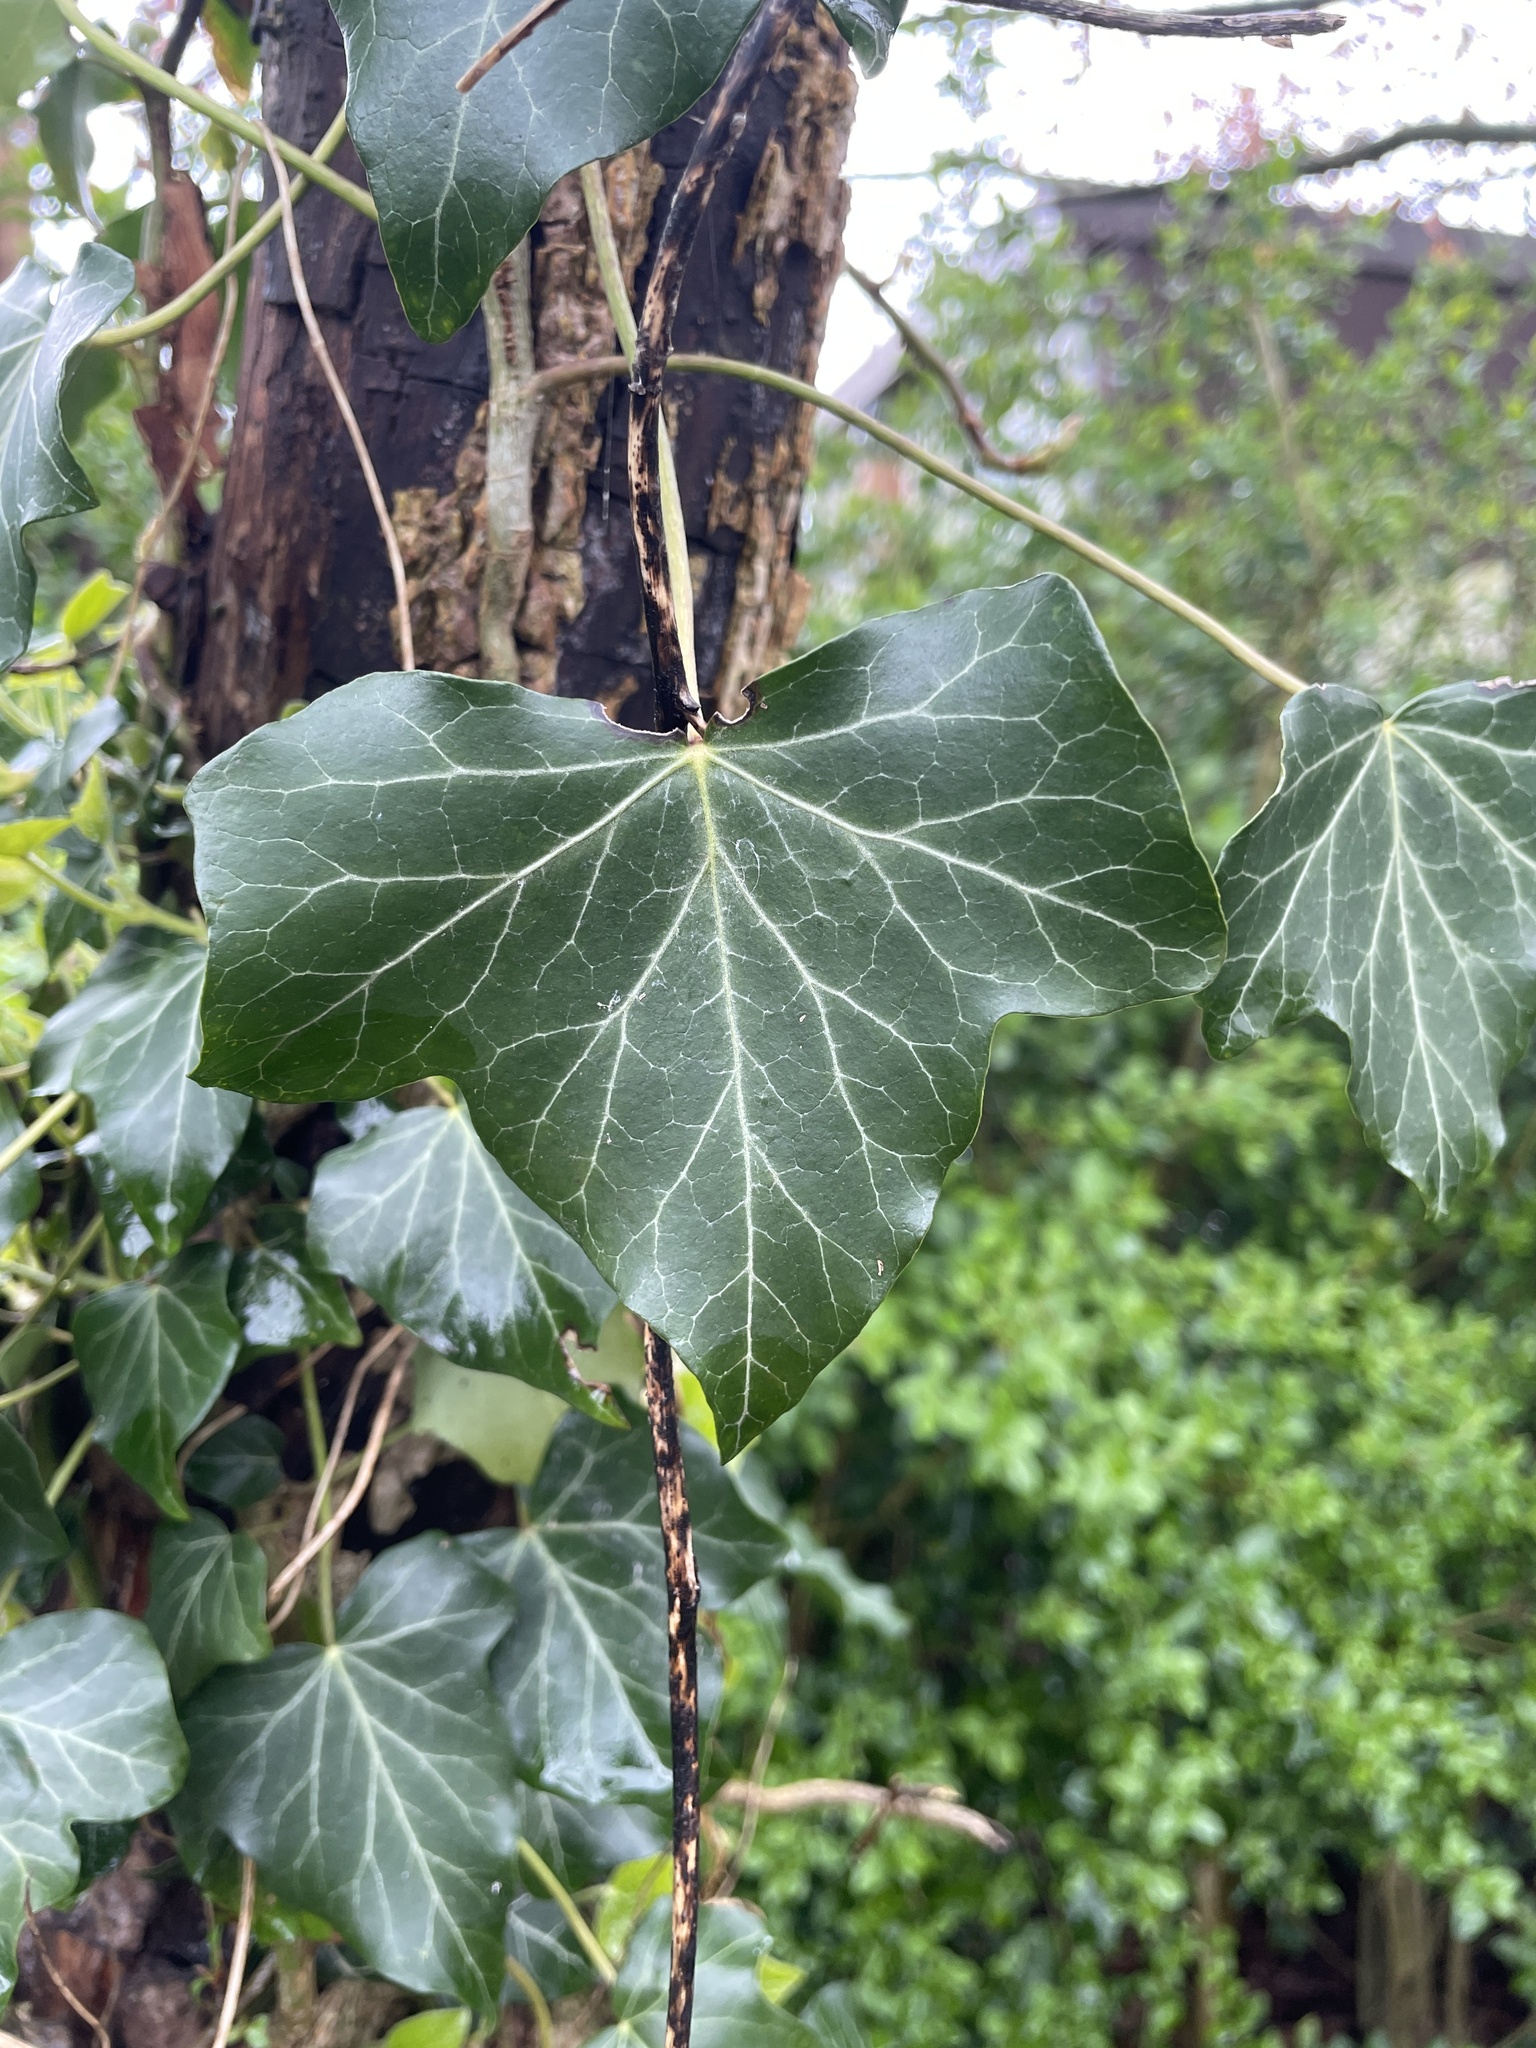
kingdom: Plantae
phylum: Tracheophyta
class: Magnoliopsida
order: Apiales
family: Araliaceae
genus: Hedera
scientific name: Hedera helix
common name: Ivy
